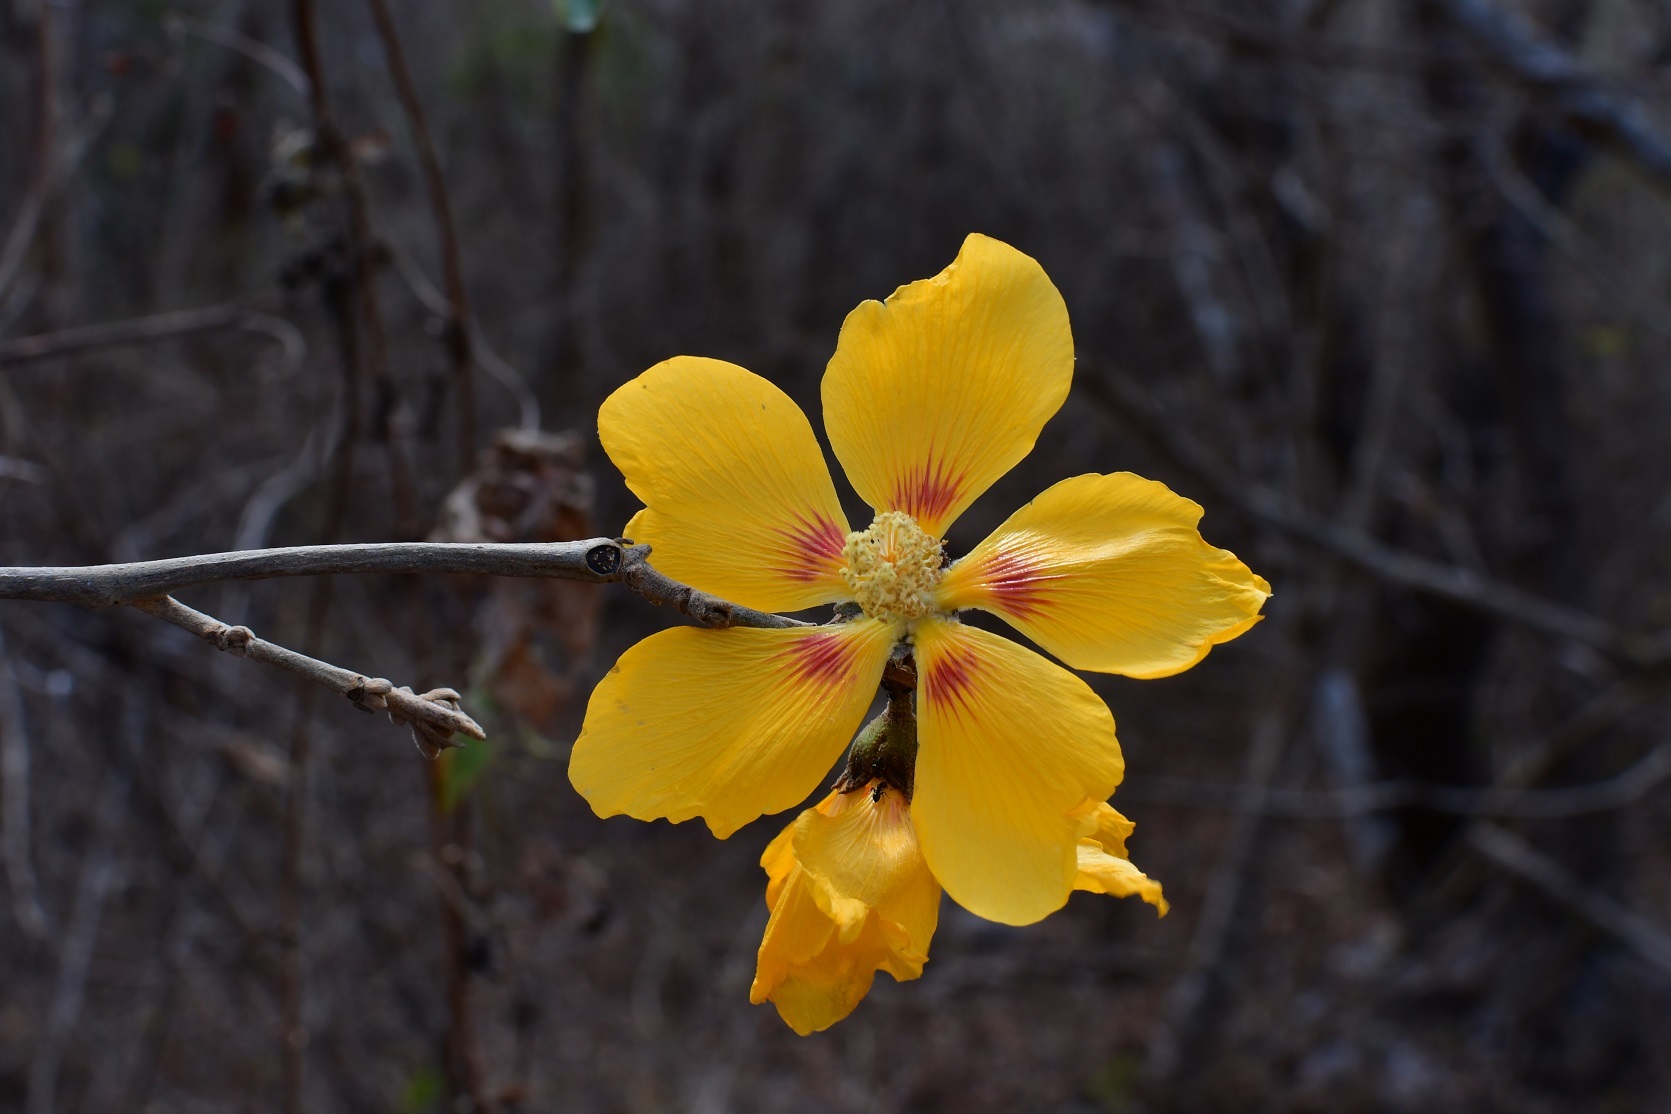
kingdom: Plantae
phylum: Tracheophyta
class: Magnoliopsida
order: Malvales
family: Malvaceae
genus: Bakeridesia
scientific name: Bakeridesia pittieri
